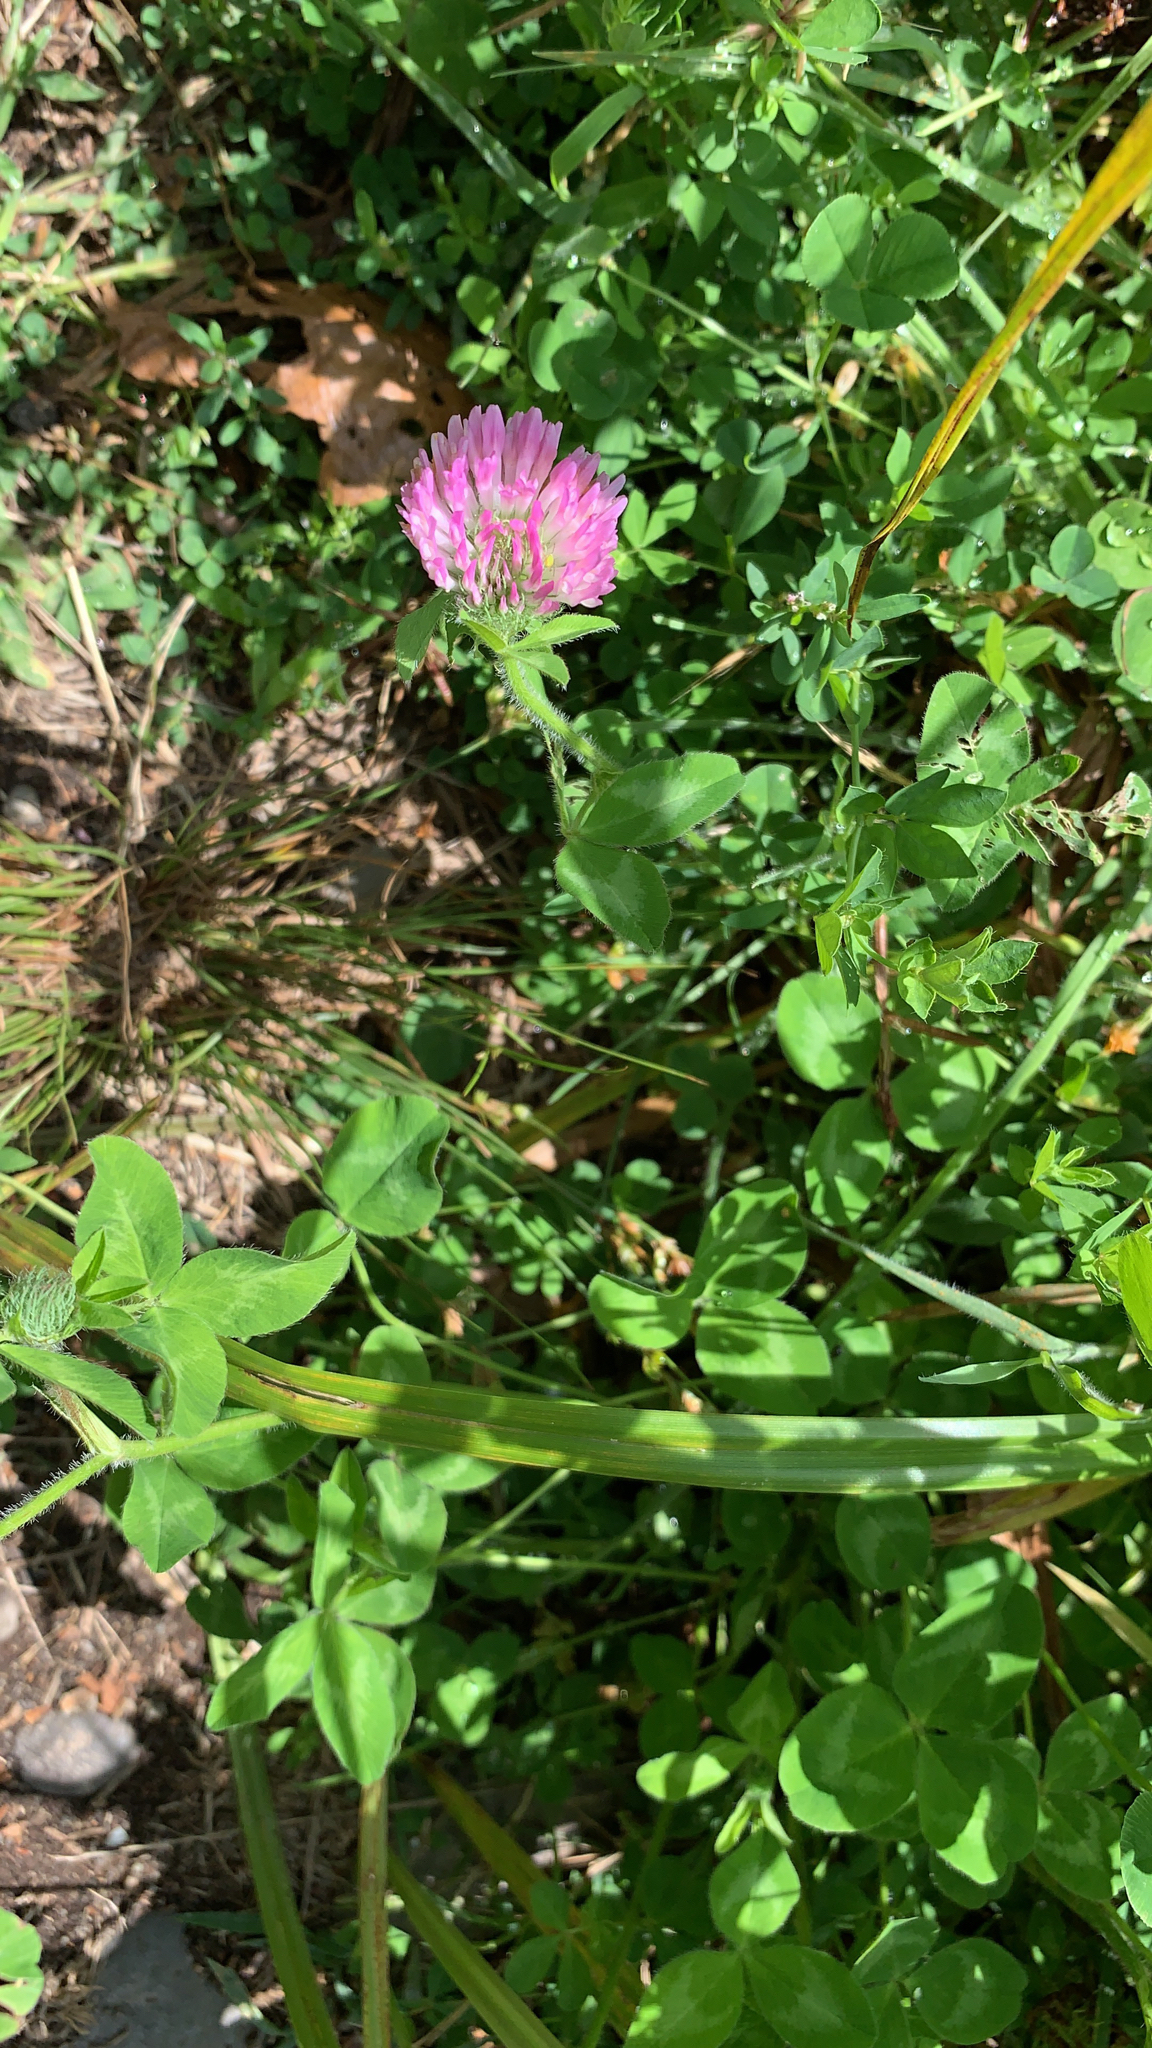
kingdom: Plantae
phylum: Tracheophyta
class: Magnoliopsida
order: Fabales
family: Fabaceae
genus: Trifolium
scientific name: Trifolium pratense
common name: Red clover
